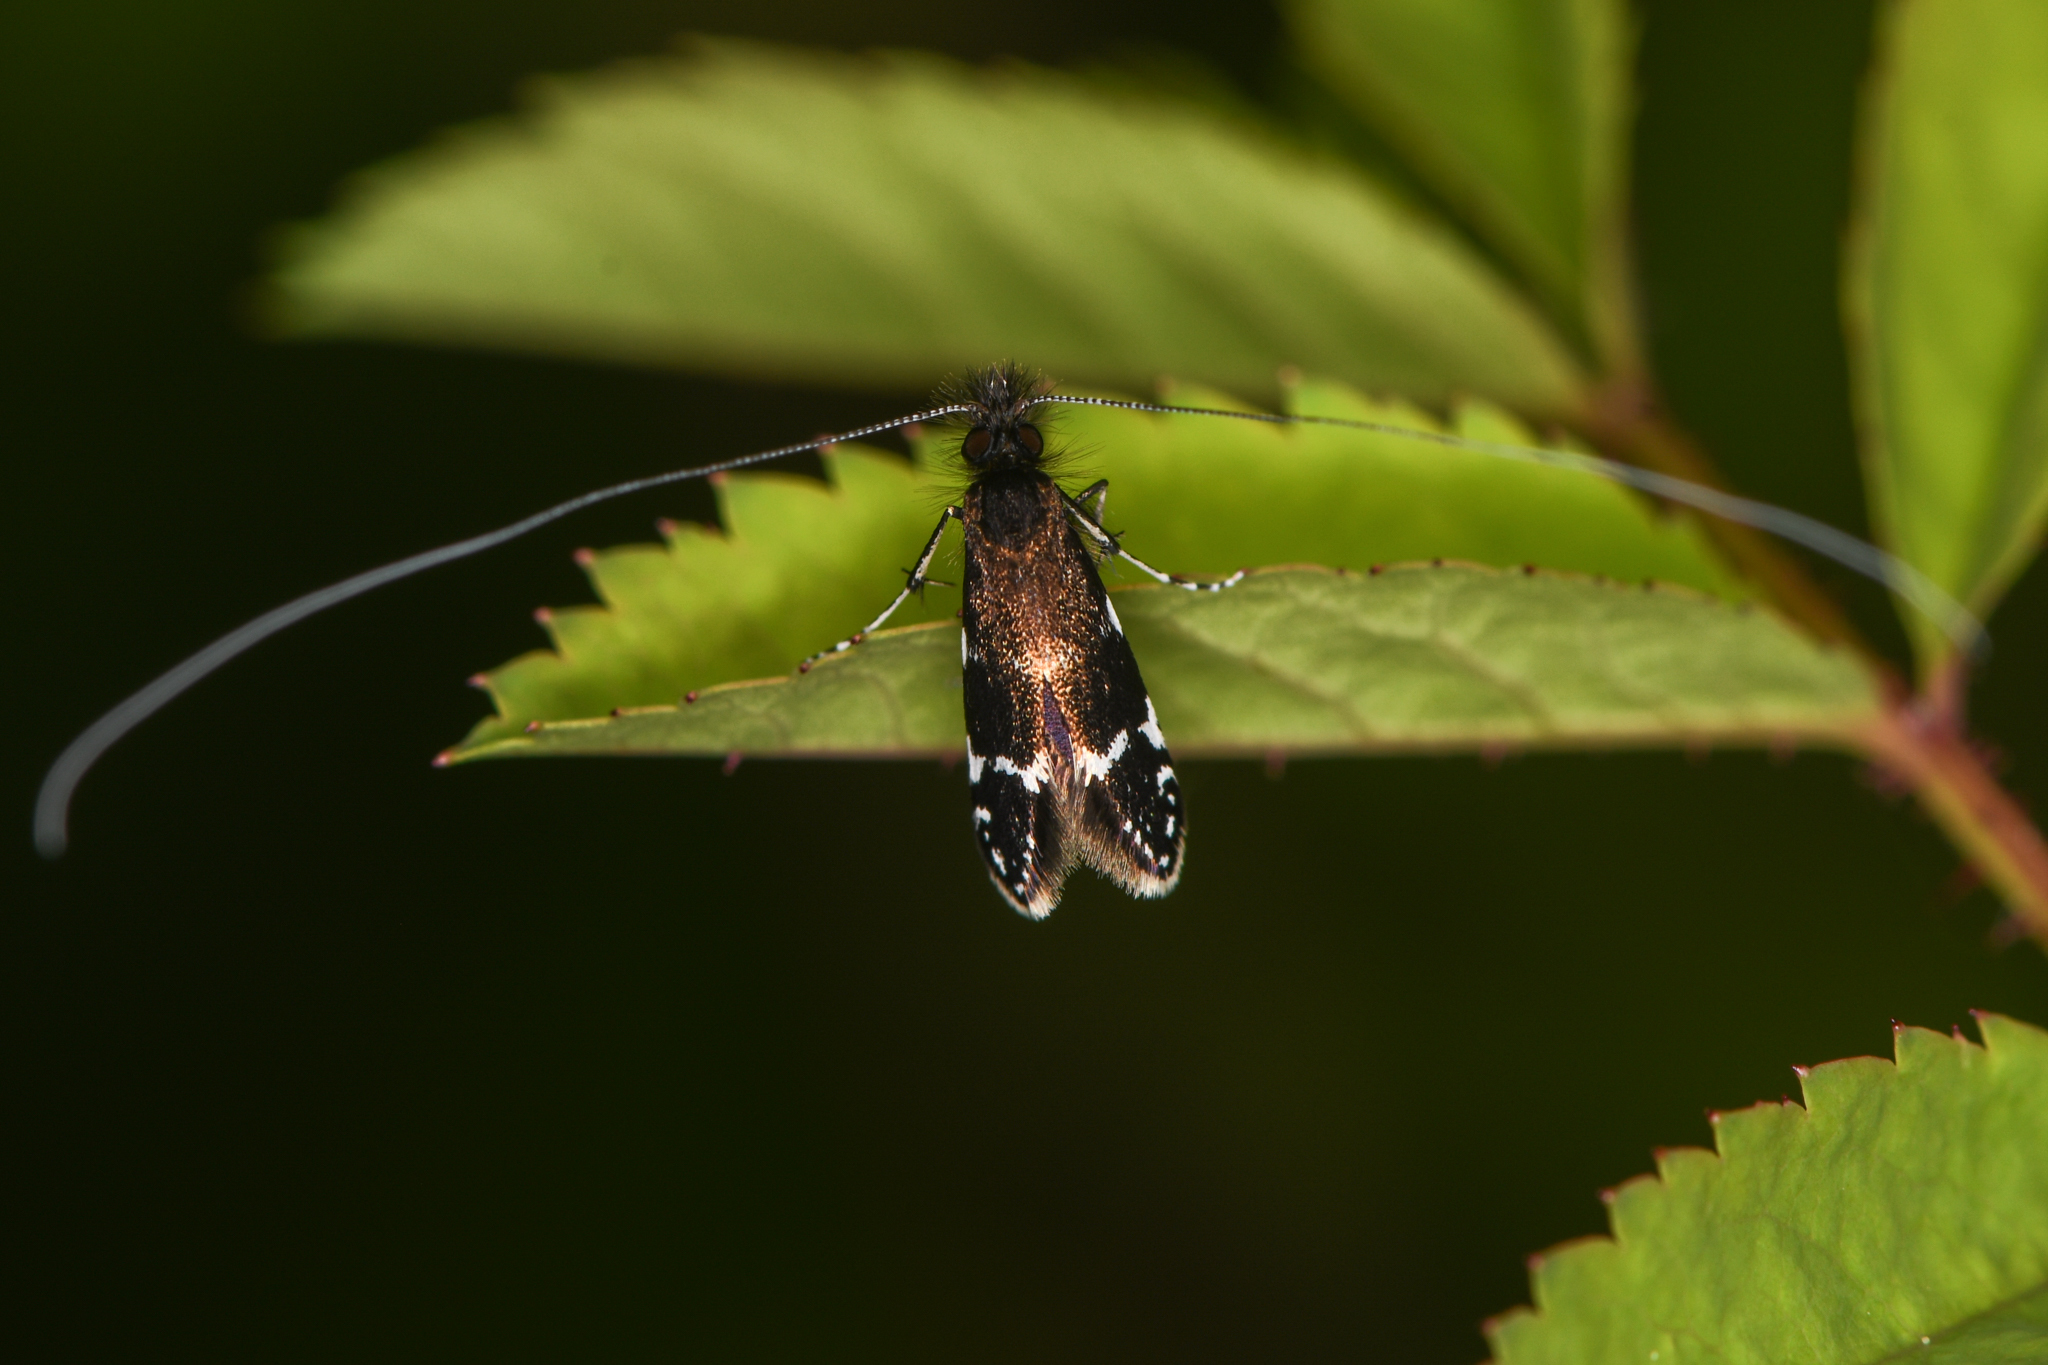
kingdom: Animalia
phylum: Arthropoda
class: Insecta
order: Lepidoptera
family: Adelidae
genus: Adela
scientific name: Adela septentrionella
